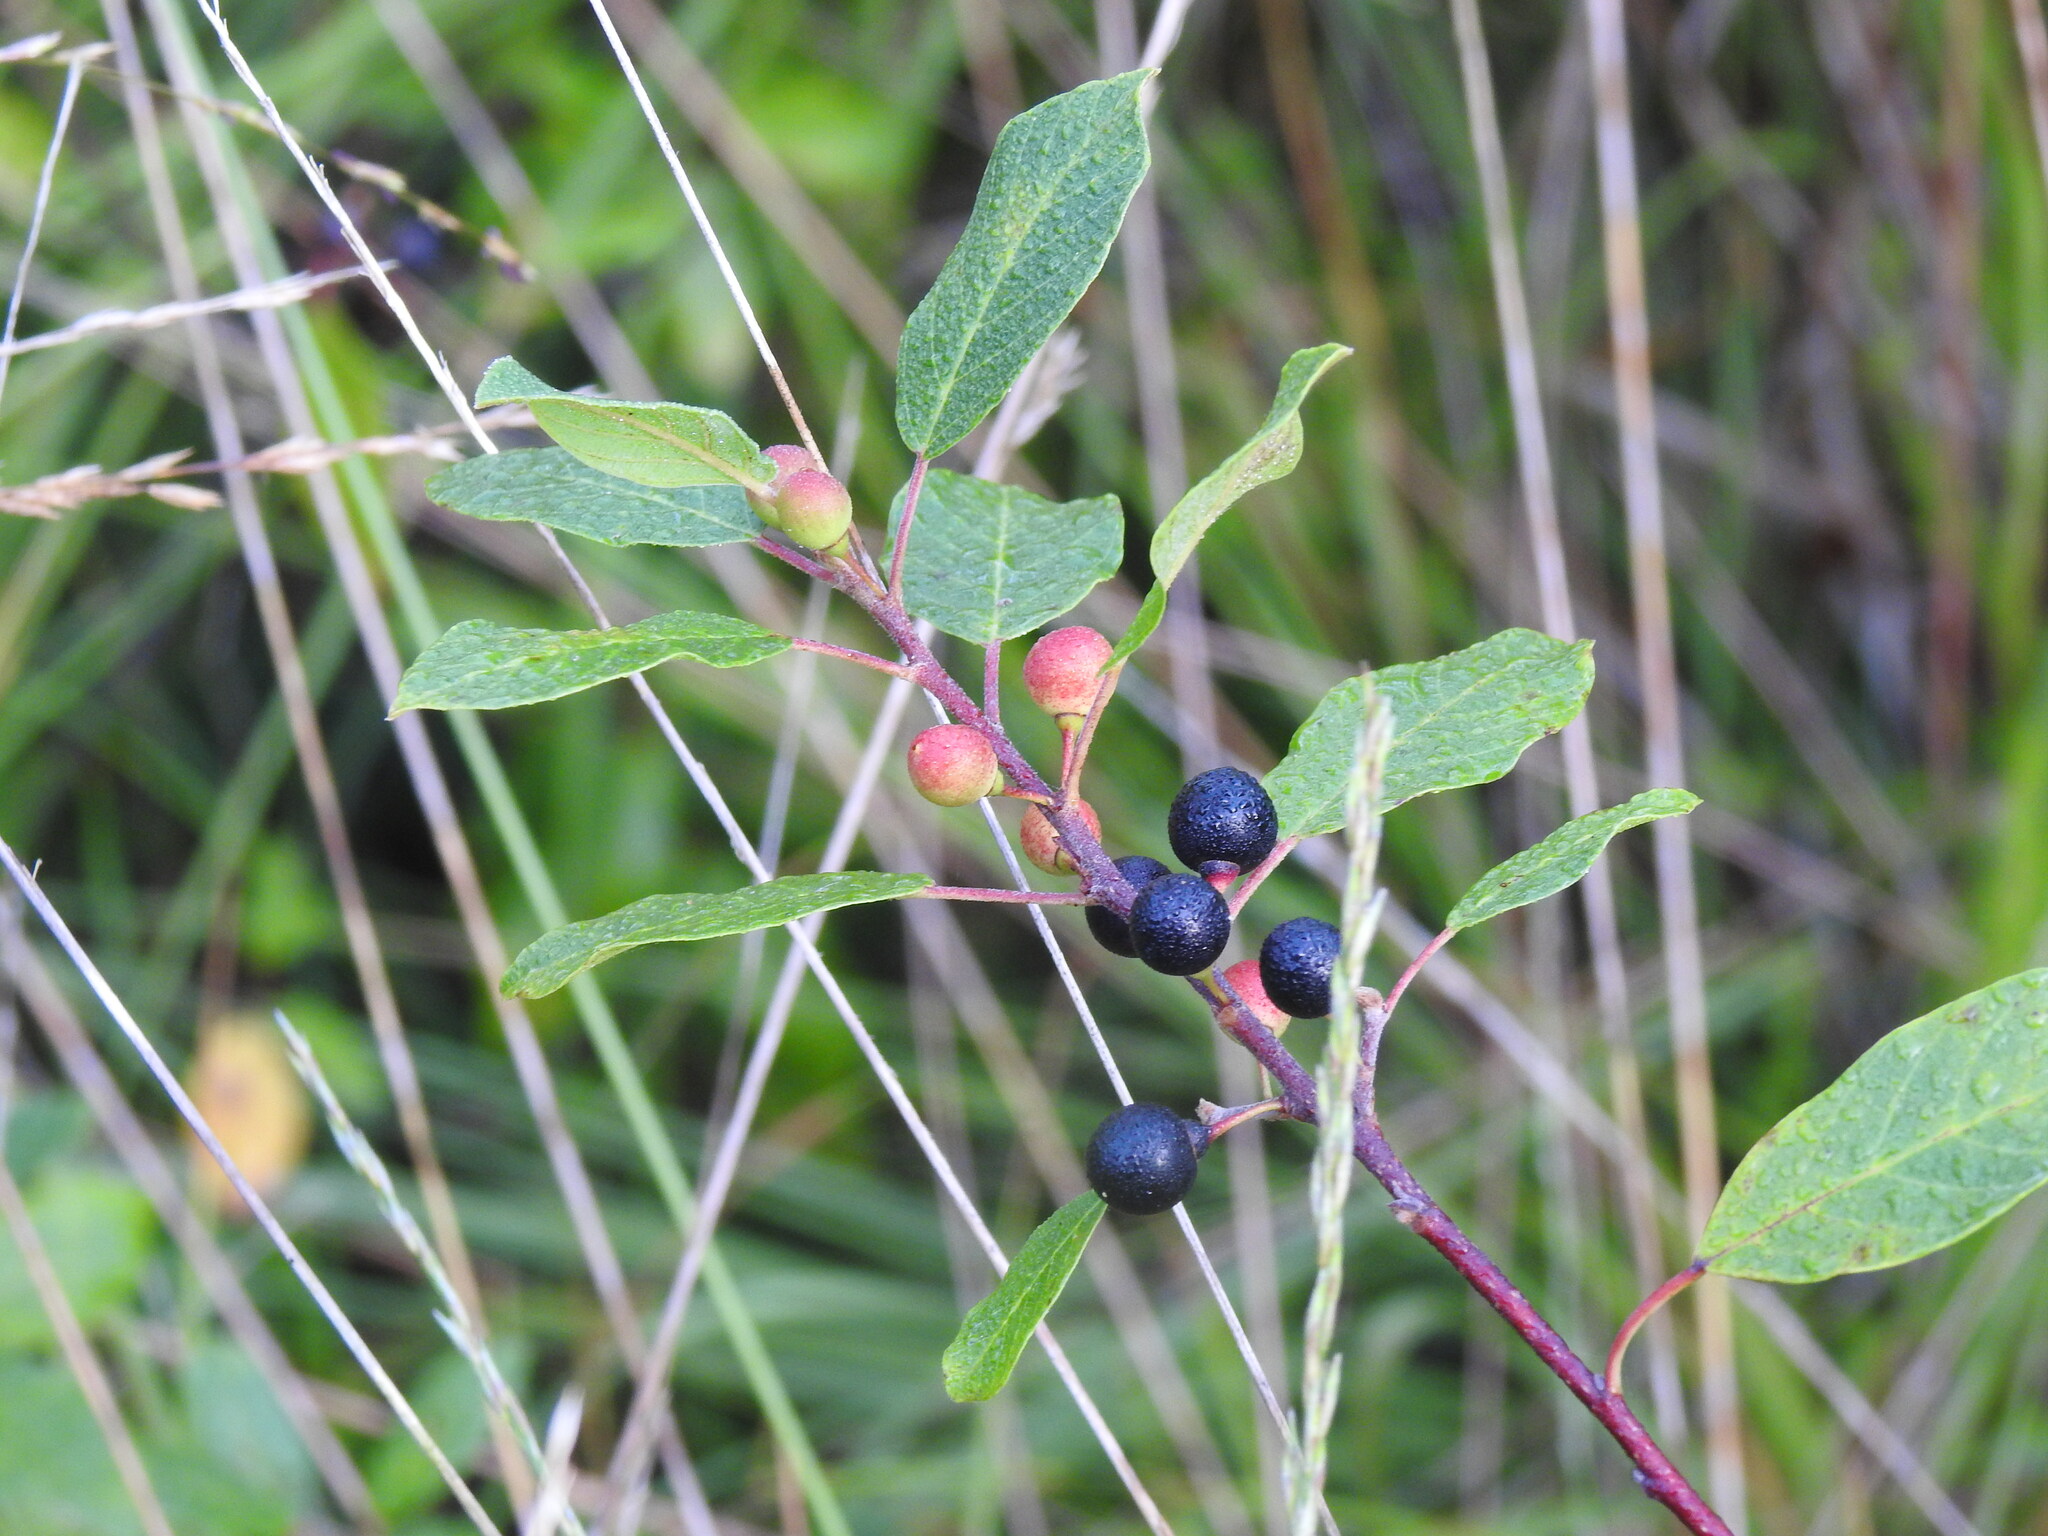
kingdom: Plantae
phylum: Tracheophyta
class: Magnoliopsida
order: Rosales
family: Rhamnaceae
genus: Frangula
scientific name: Frangula alnus
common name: Alder buckthorn
